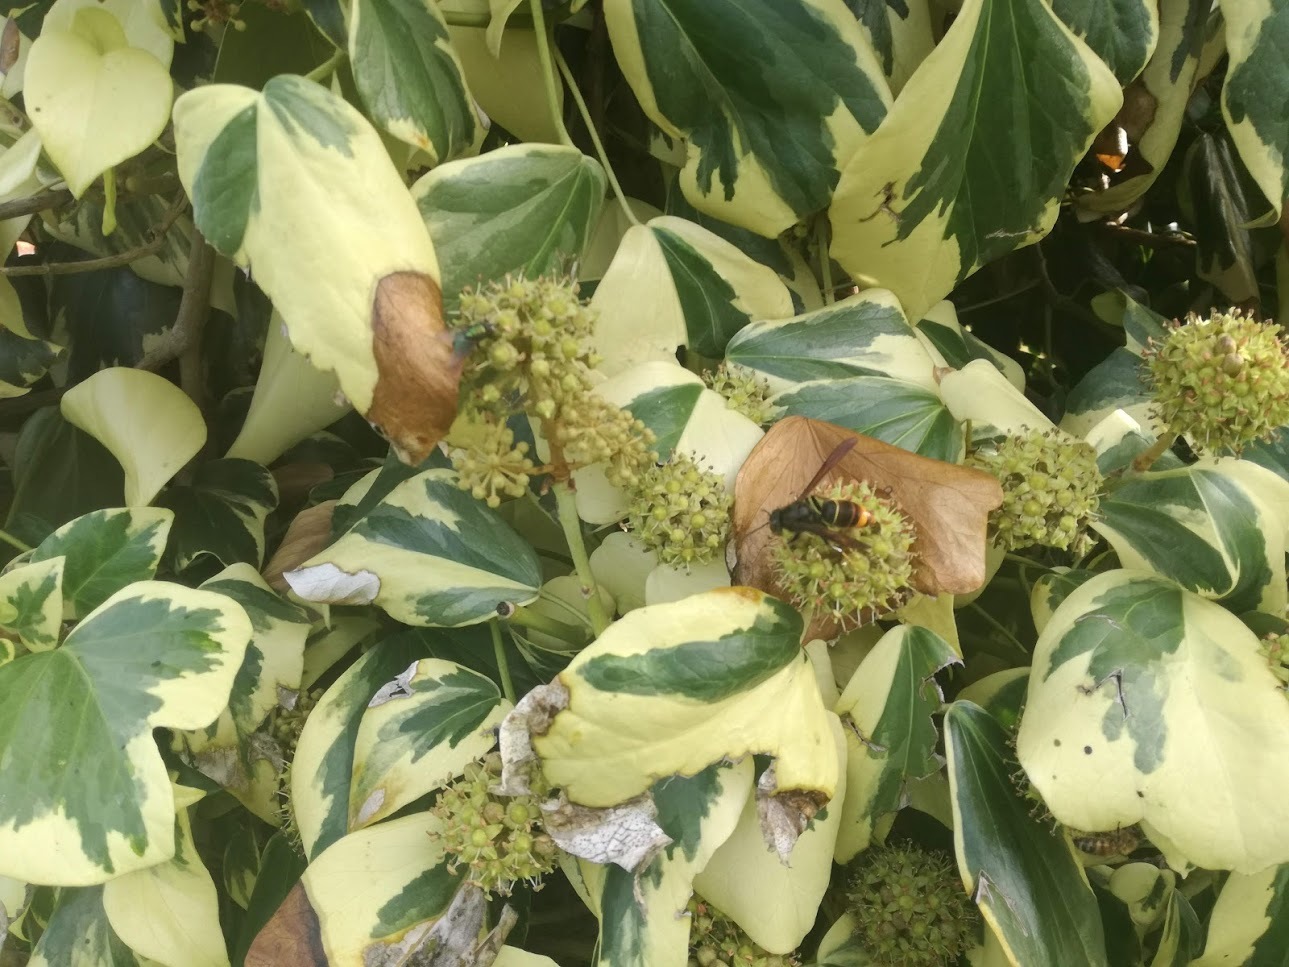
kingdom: Animalia
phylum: Arthropoda
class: Insecta
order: Hymenoptera
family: Vespidae
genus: Vespa
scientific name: Vespa velutina
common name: Asian hornet
